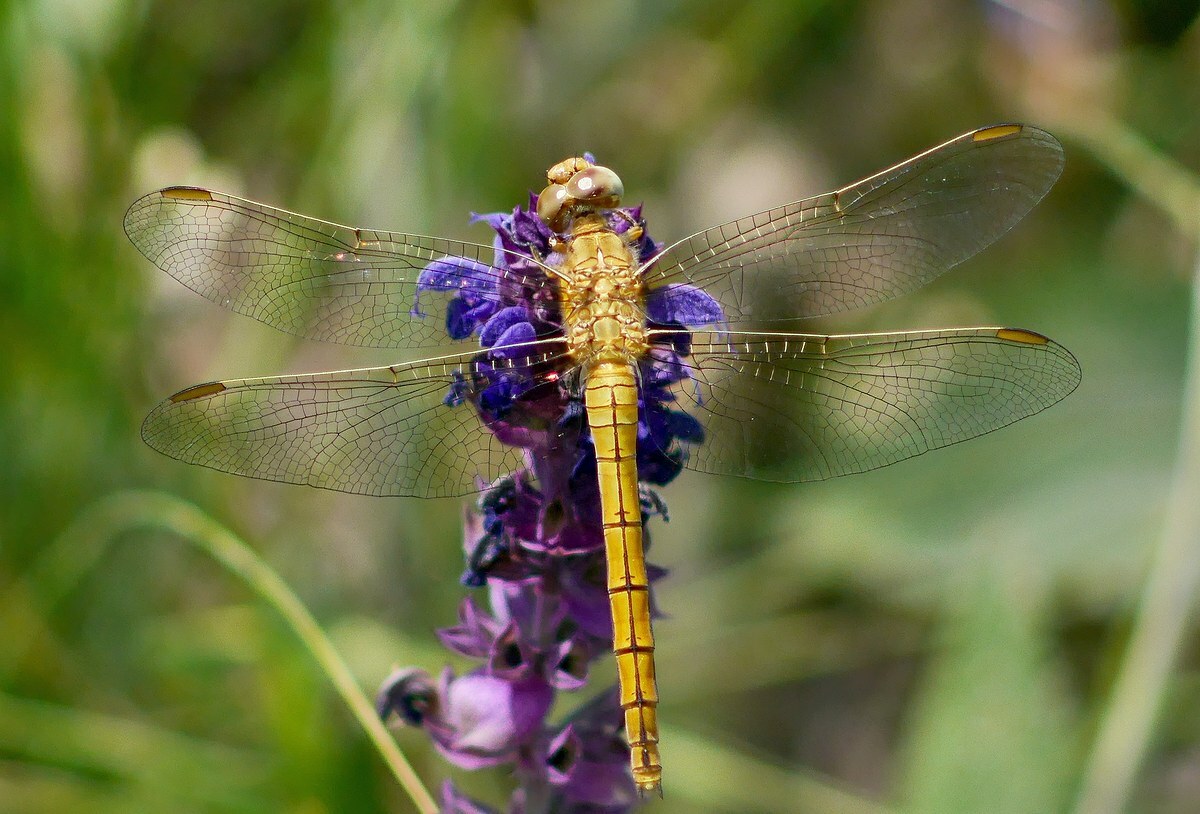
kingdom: Animalia
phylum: Arthropoda
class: Insecta
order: Odonata
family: Libellulidae
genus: Orthetrum
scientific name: Orthetrum coerulescens
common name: Keeled skimmer
